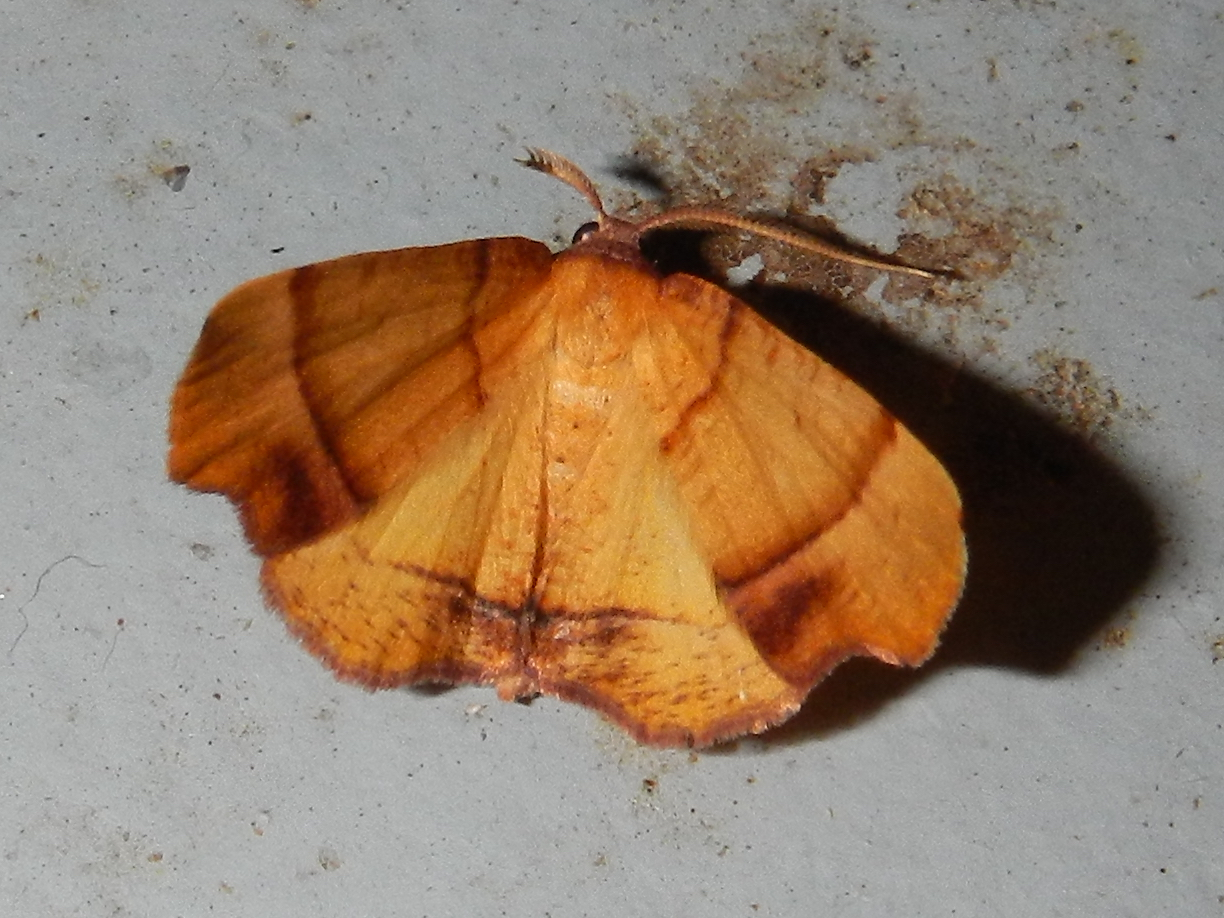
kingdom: Animalia
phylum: Arthropoda
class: Insecta
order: Lepidoptera
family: Geometridae
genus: Plagodis
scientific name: Plagodis phlogosaria
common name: Straight-lined plagodis
